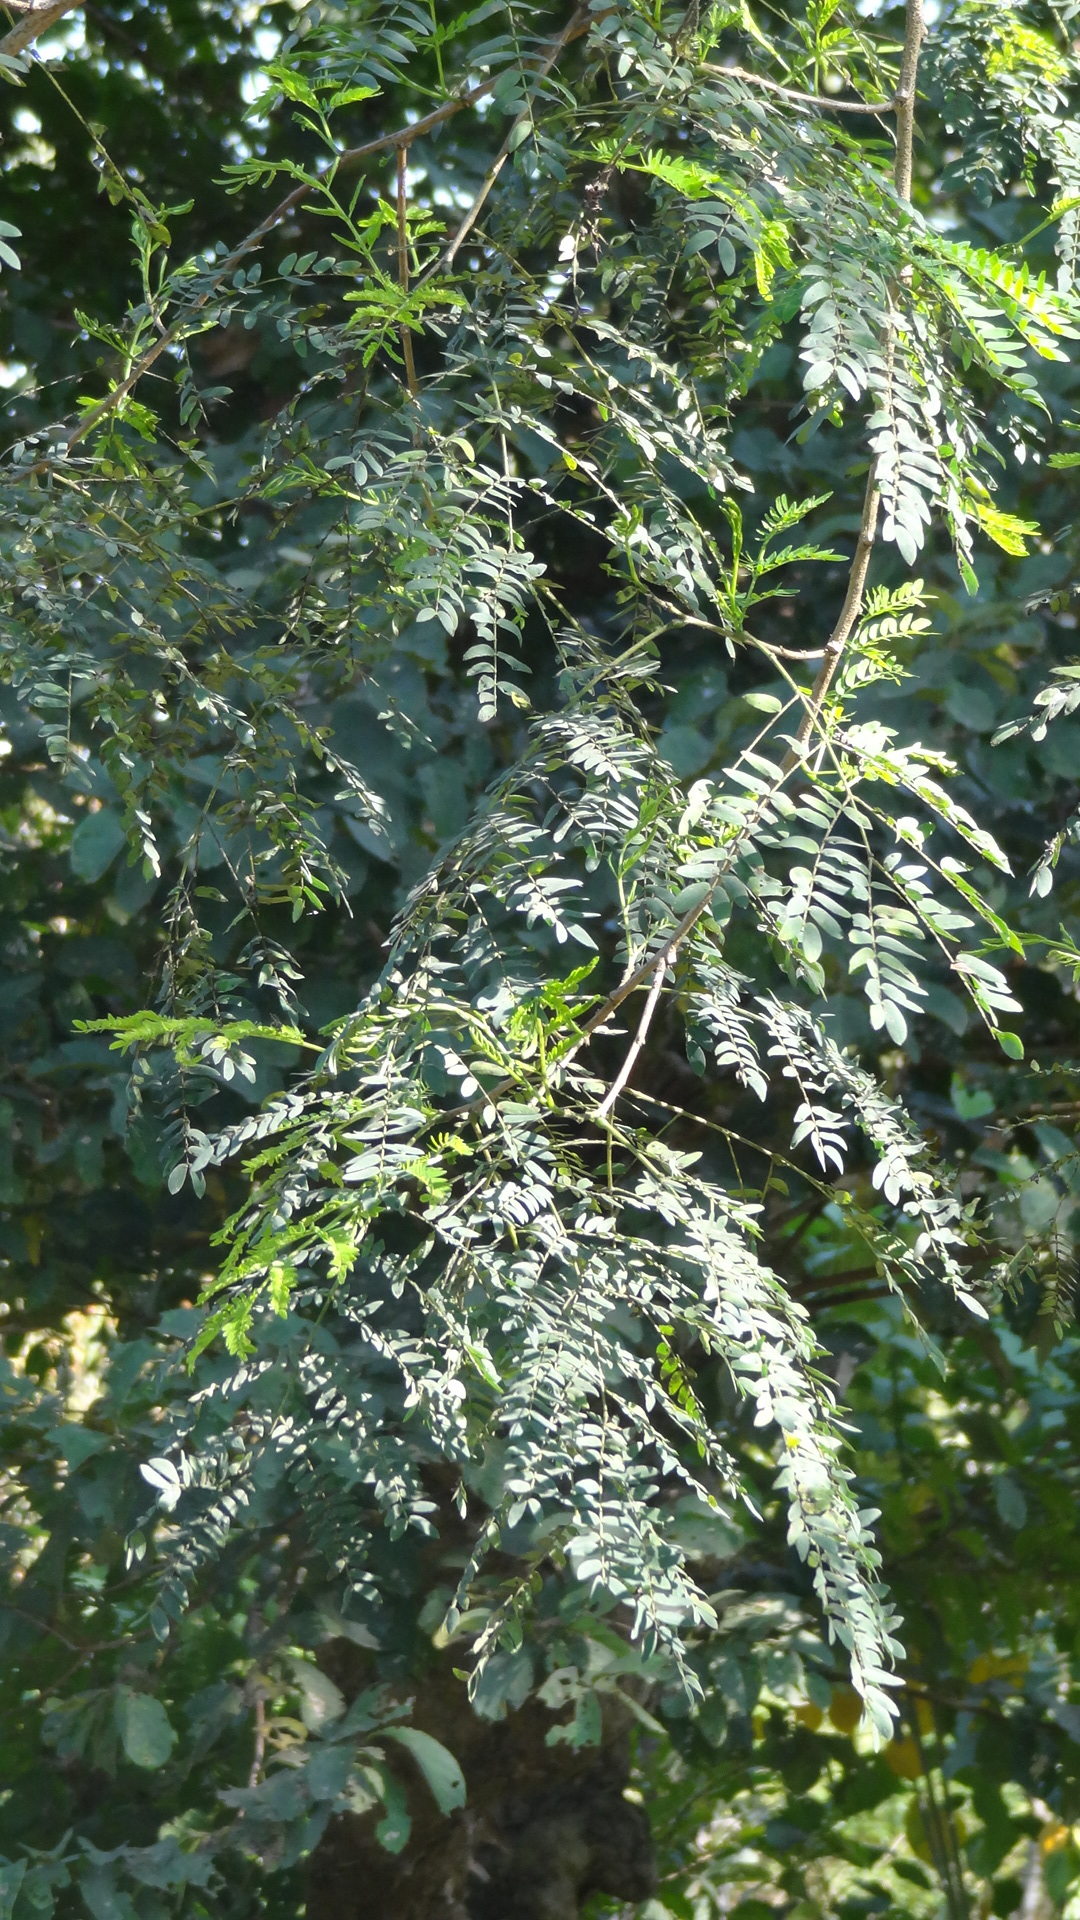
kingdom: Plantae
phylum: Tracheophyta
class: Magnoliopsida
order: Fabales
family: Fabaceae
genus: Leucaena
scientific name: Leucaena leucocephala
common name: White leadtree
